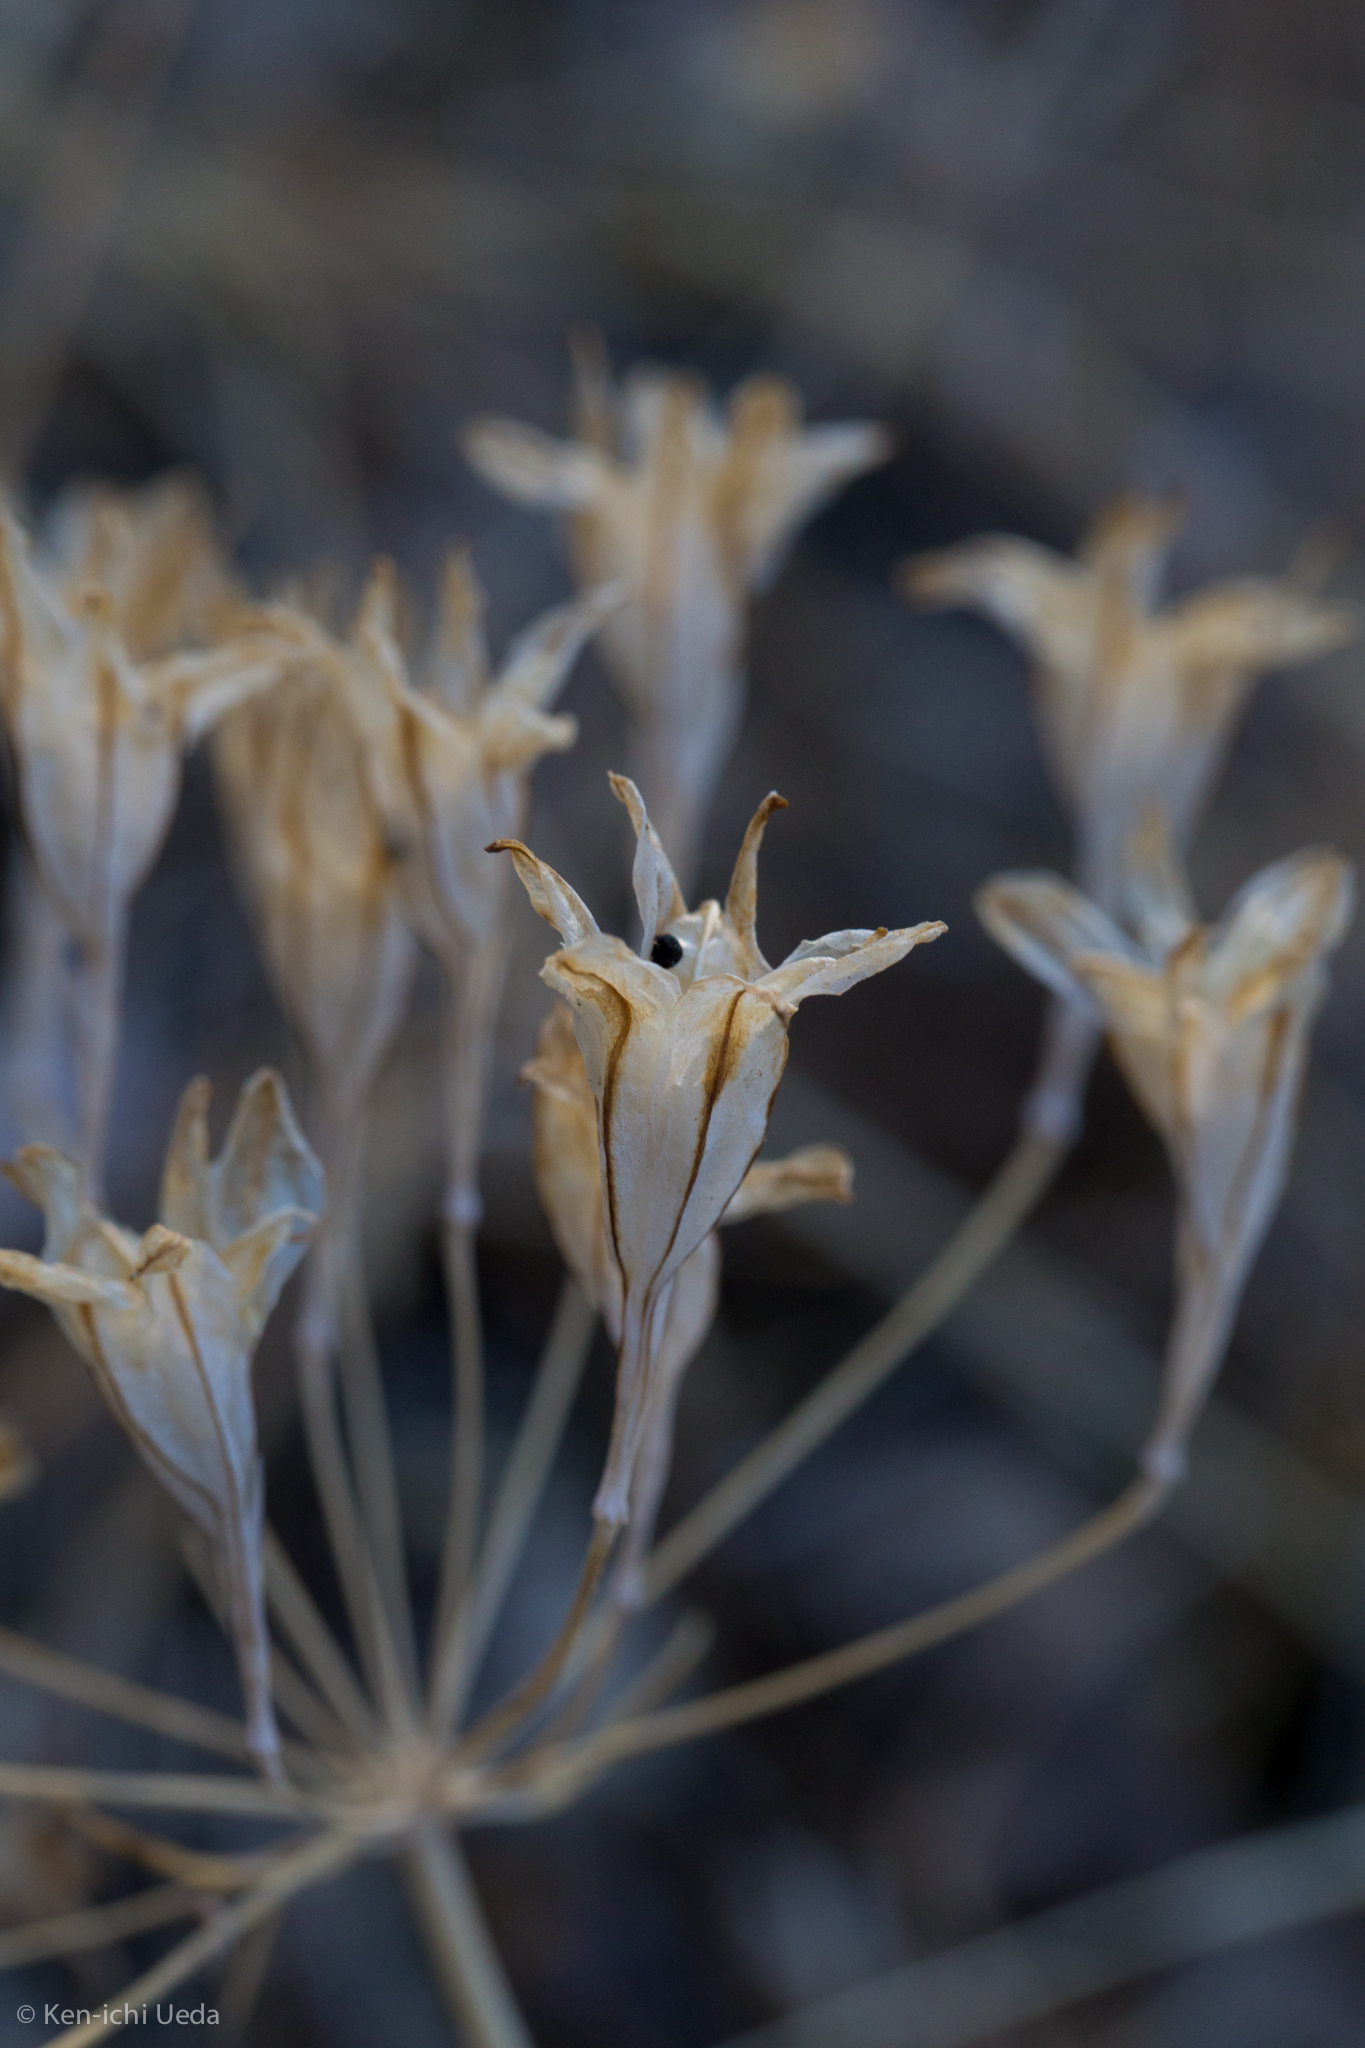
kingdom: Plantae
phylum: Tracheophyta
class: Liliopsida
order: Asparagales
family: Asparagaceae
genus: Triteleia
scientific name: Triteleia laxa
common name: Triplet-lily
